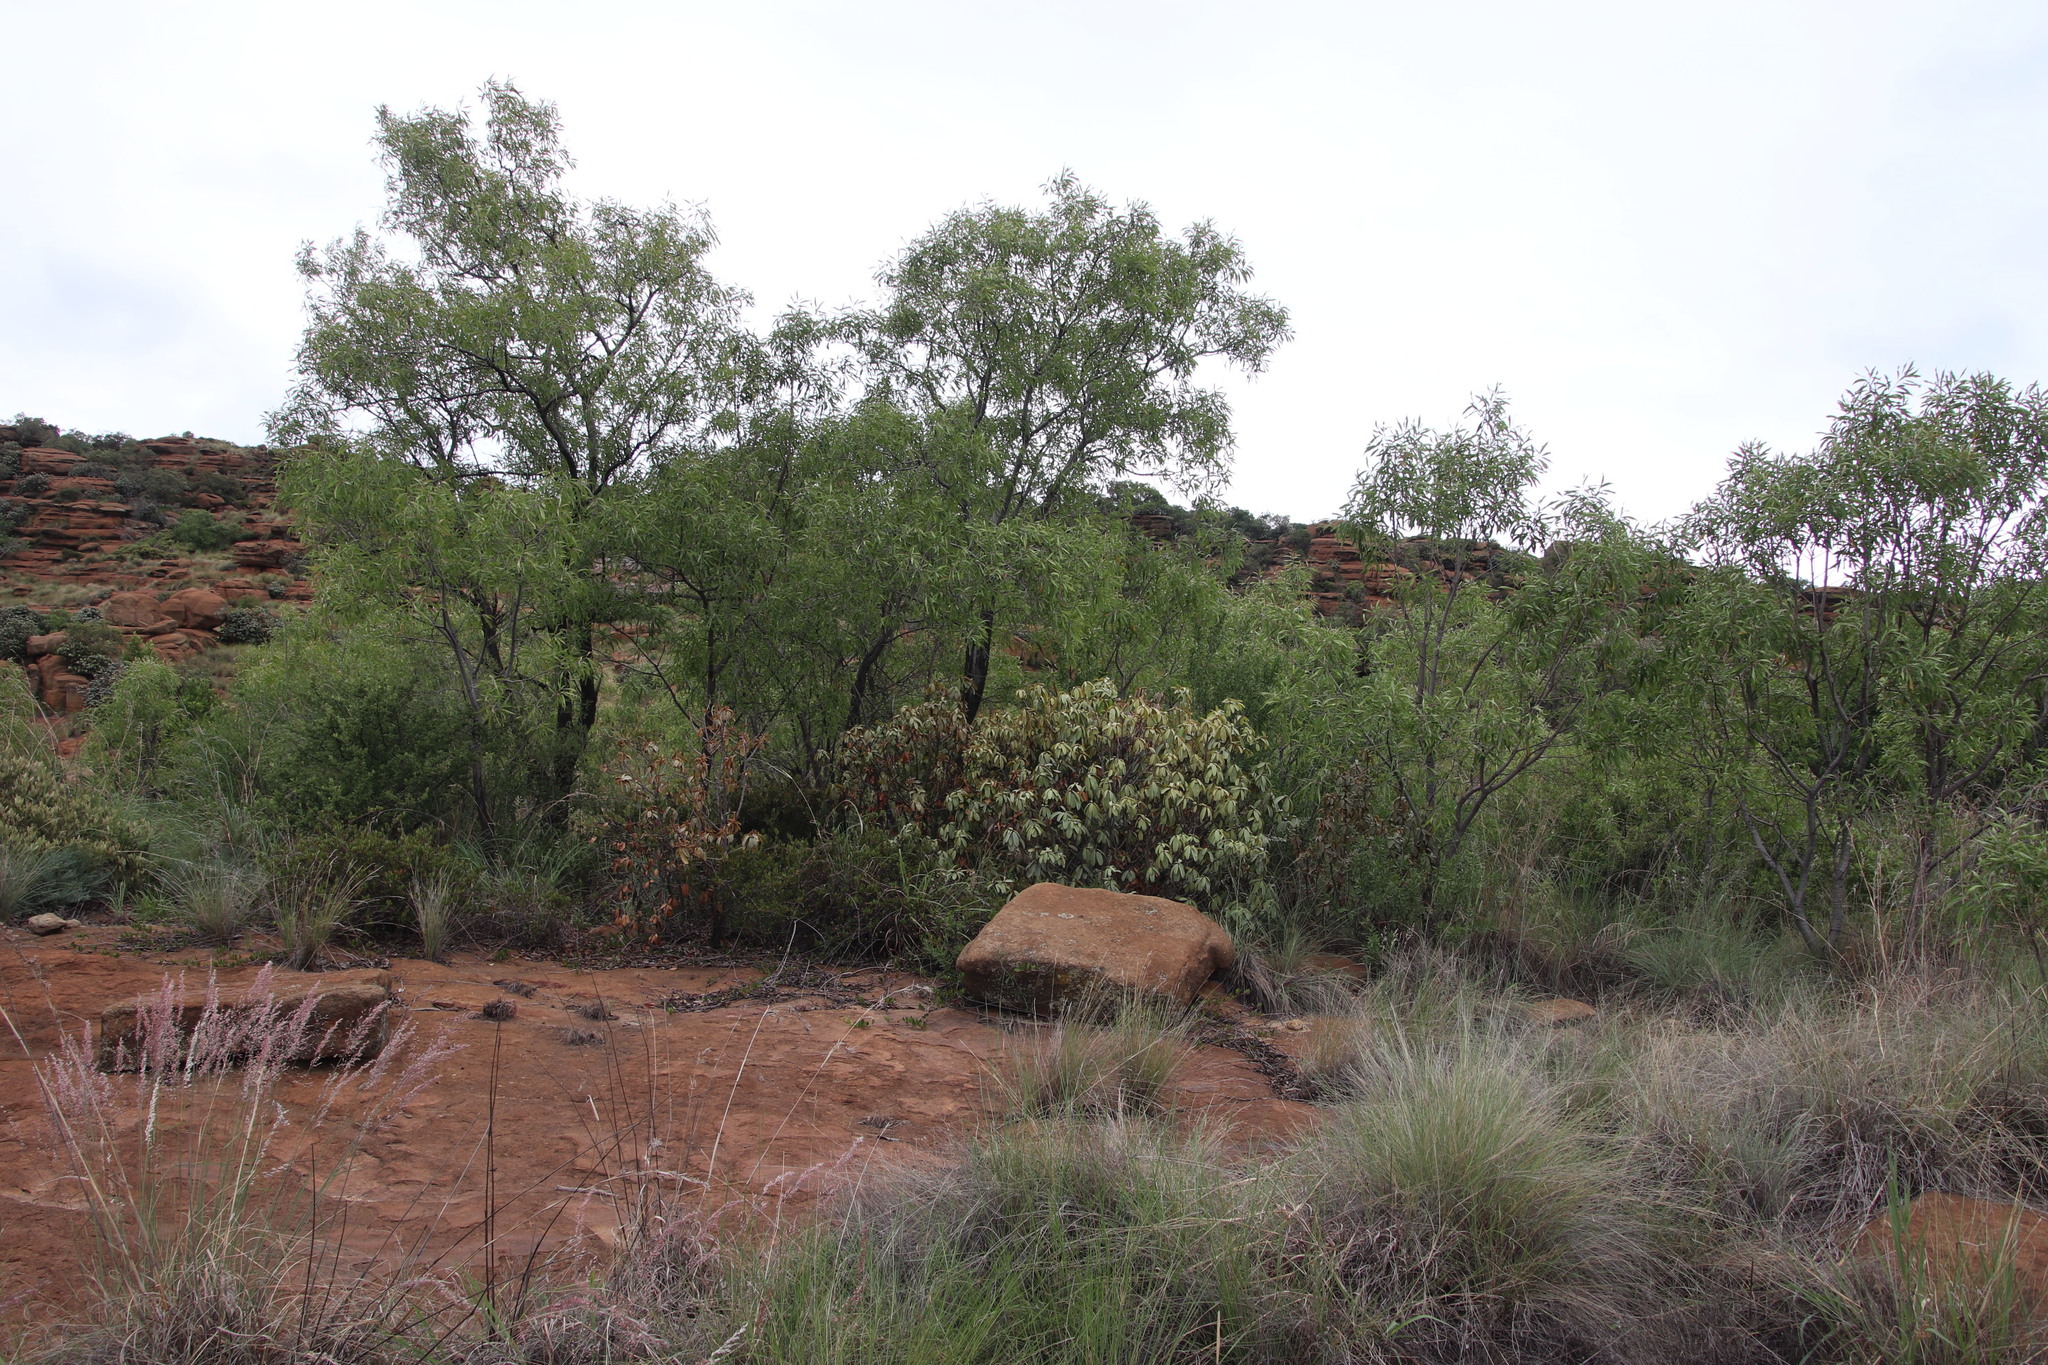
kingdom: Plantae
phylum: Tracheophyta
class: Magnoliopsida
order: Proteales
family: Proteaceae
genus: Faurea
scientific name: Faurea saligna
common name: African bean
